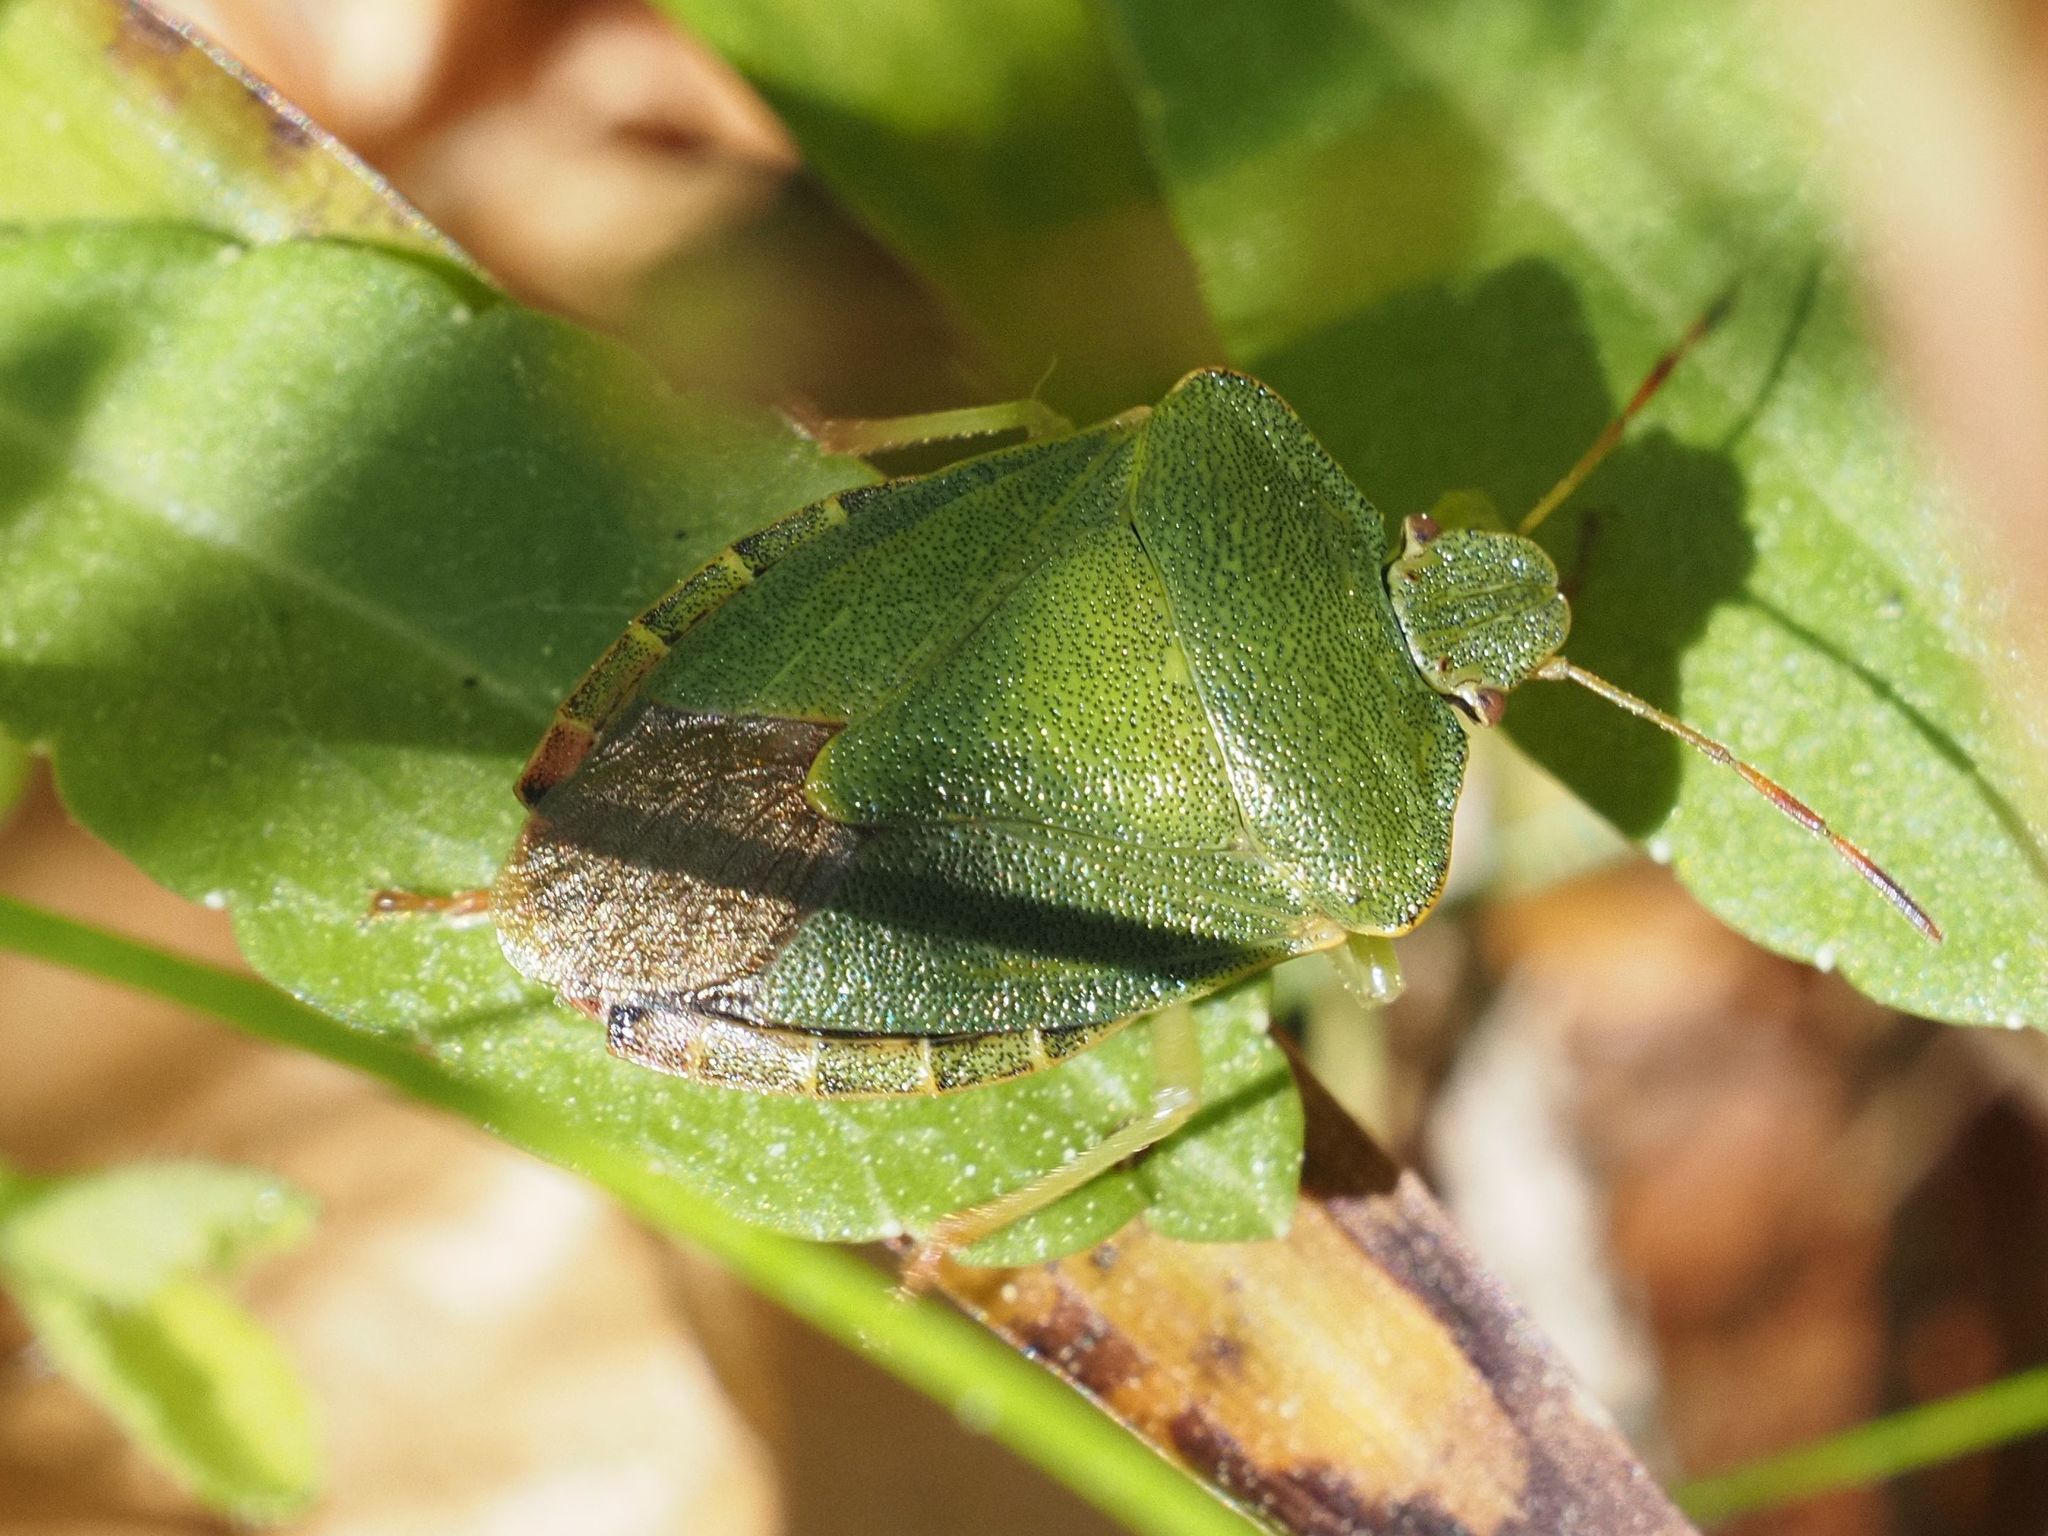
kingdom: Animalia
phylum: Arthropoda
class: Insecta
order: Hemiptera
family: Pentatomidae
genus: Palomena
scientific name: Palomena prasina
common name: Green shieldbug
